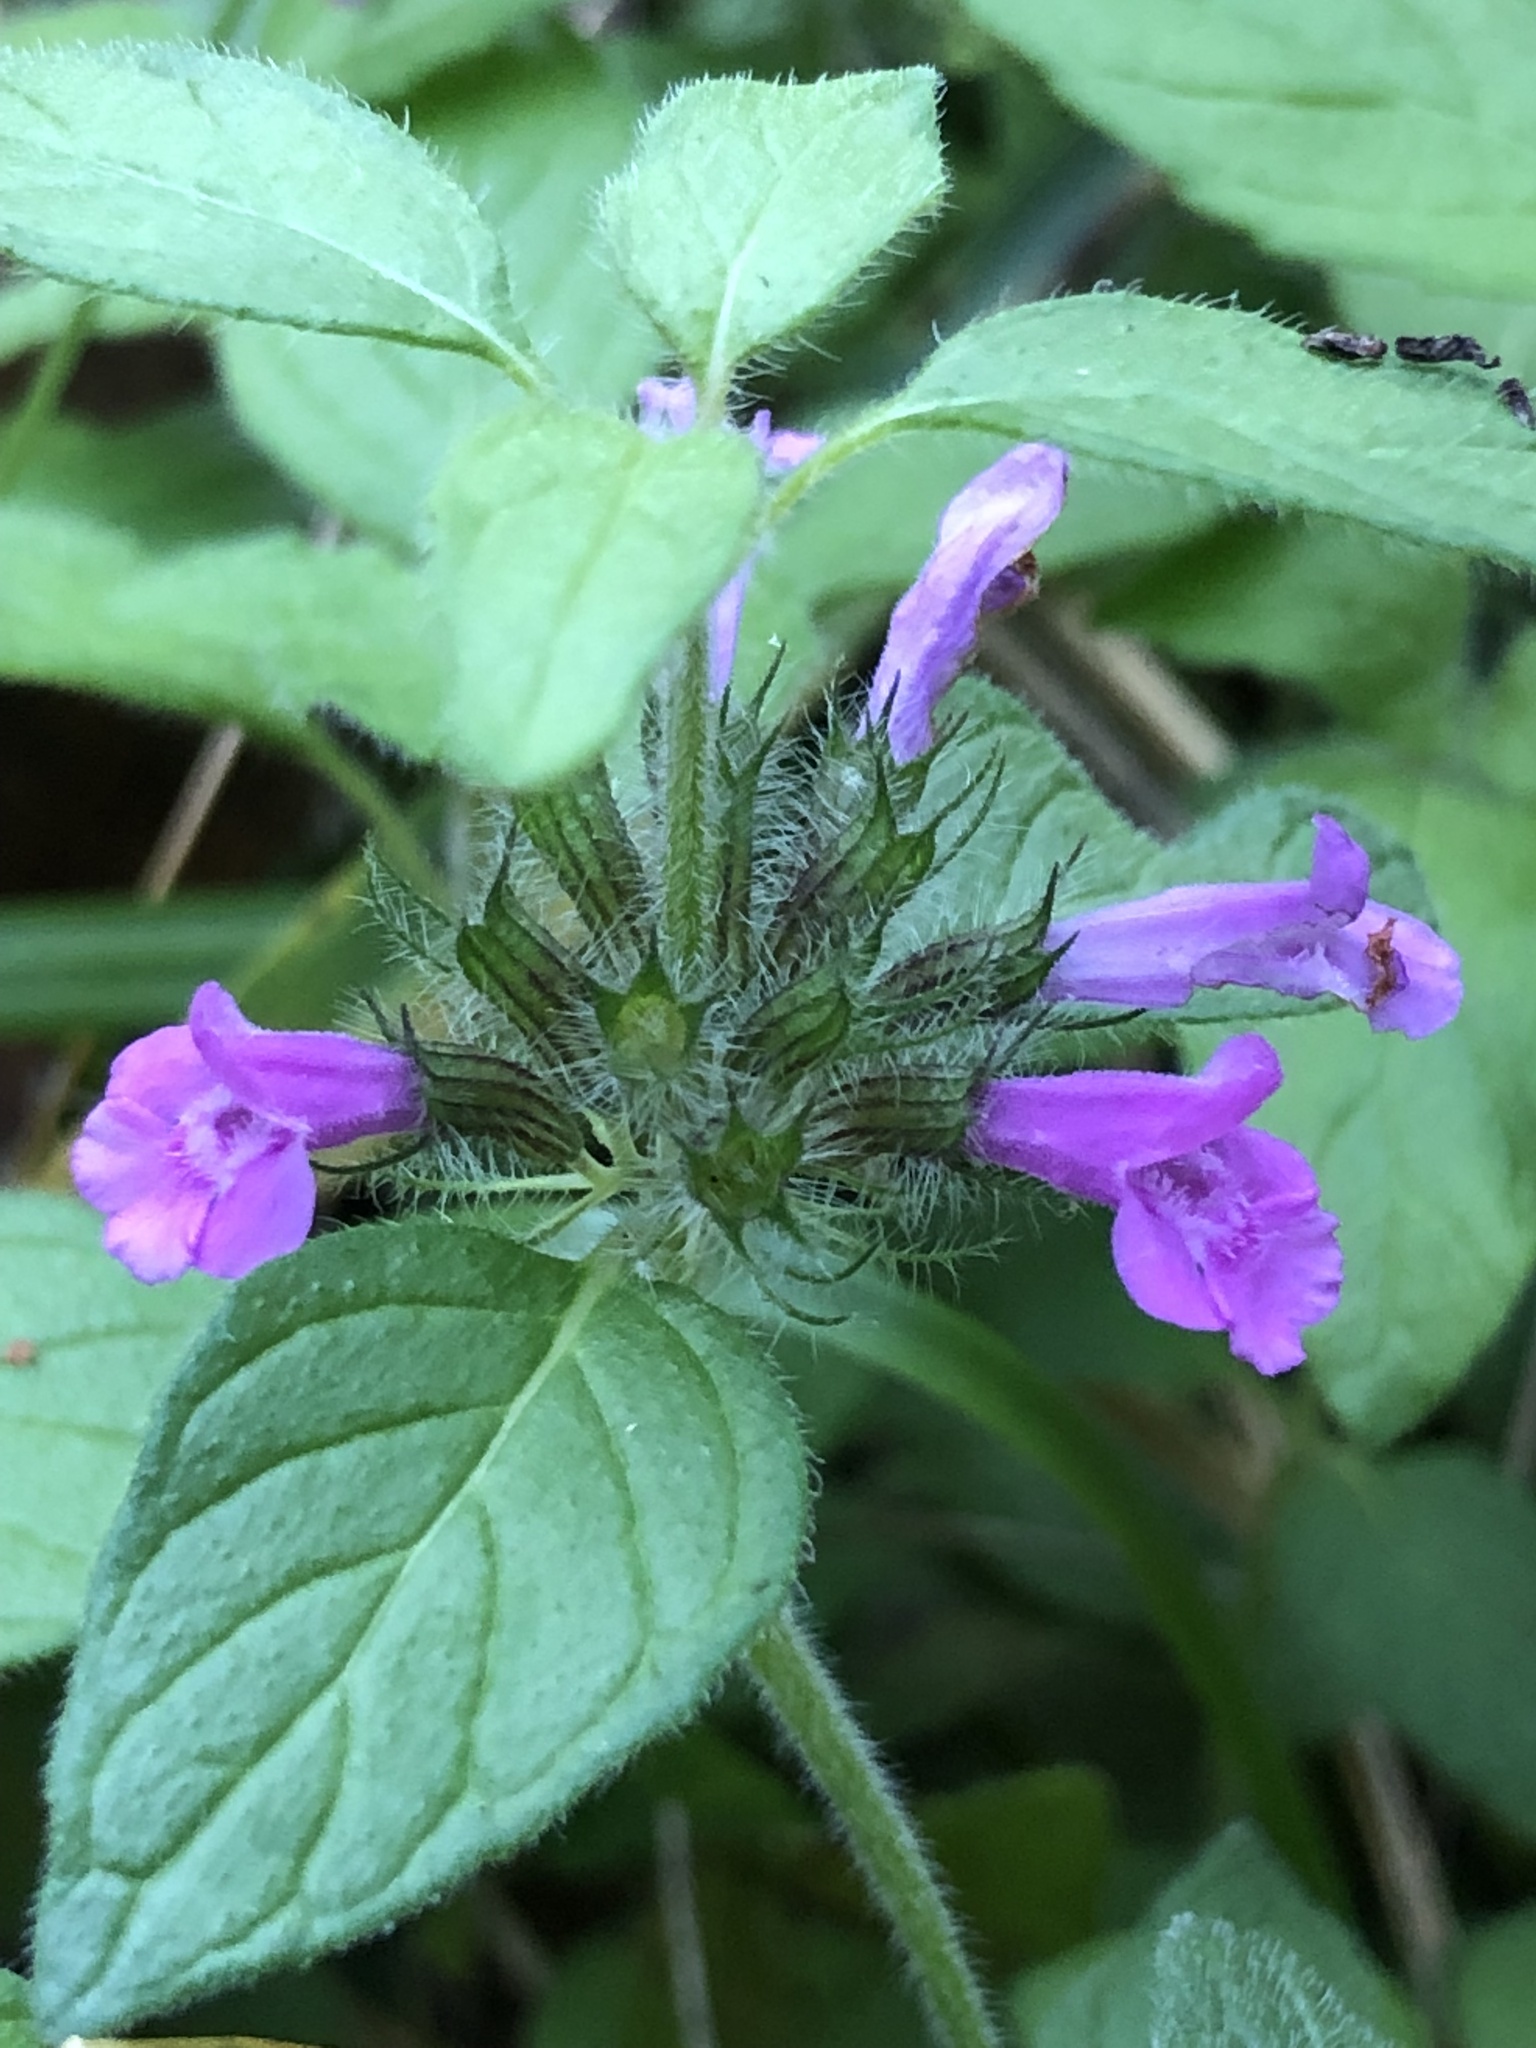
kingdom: Plantae
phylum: Tracheophyta
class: Magnoliopsida
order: Lamiales
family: Lamiaceae
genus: Clinopodium
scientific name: Clinopodium vulgare
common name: Wild basil
